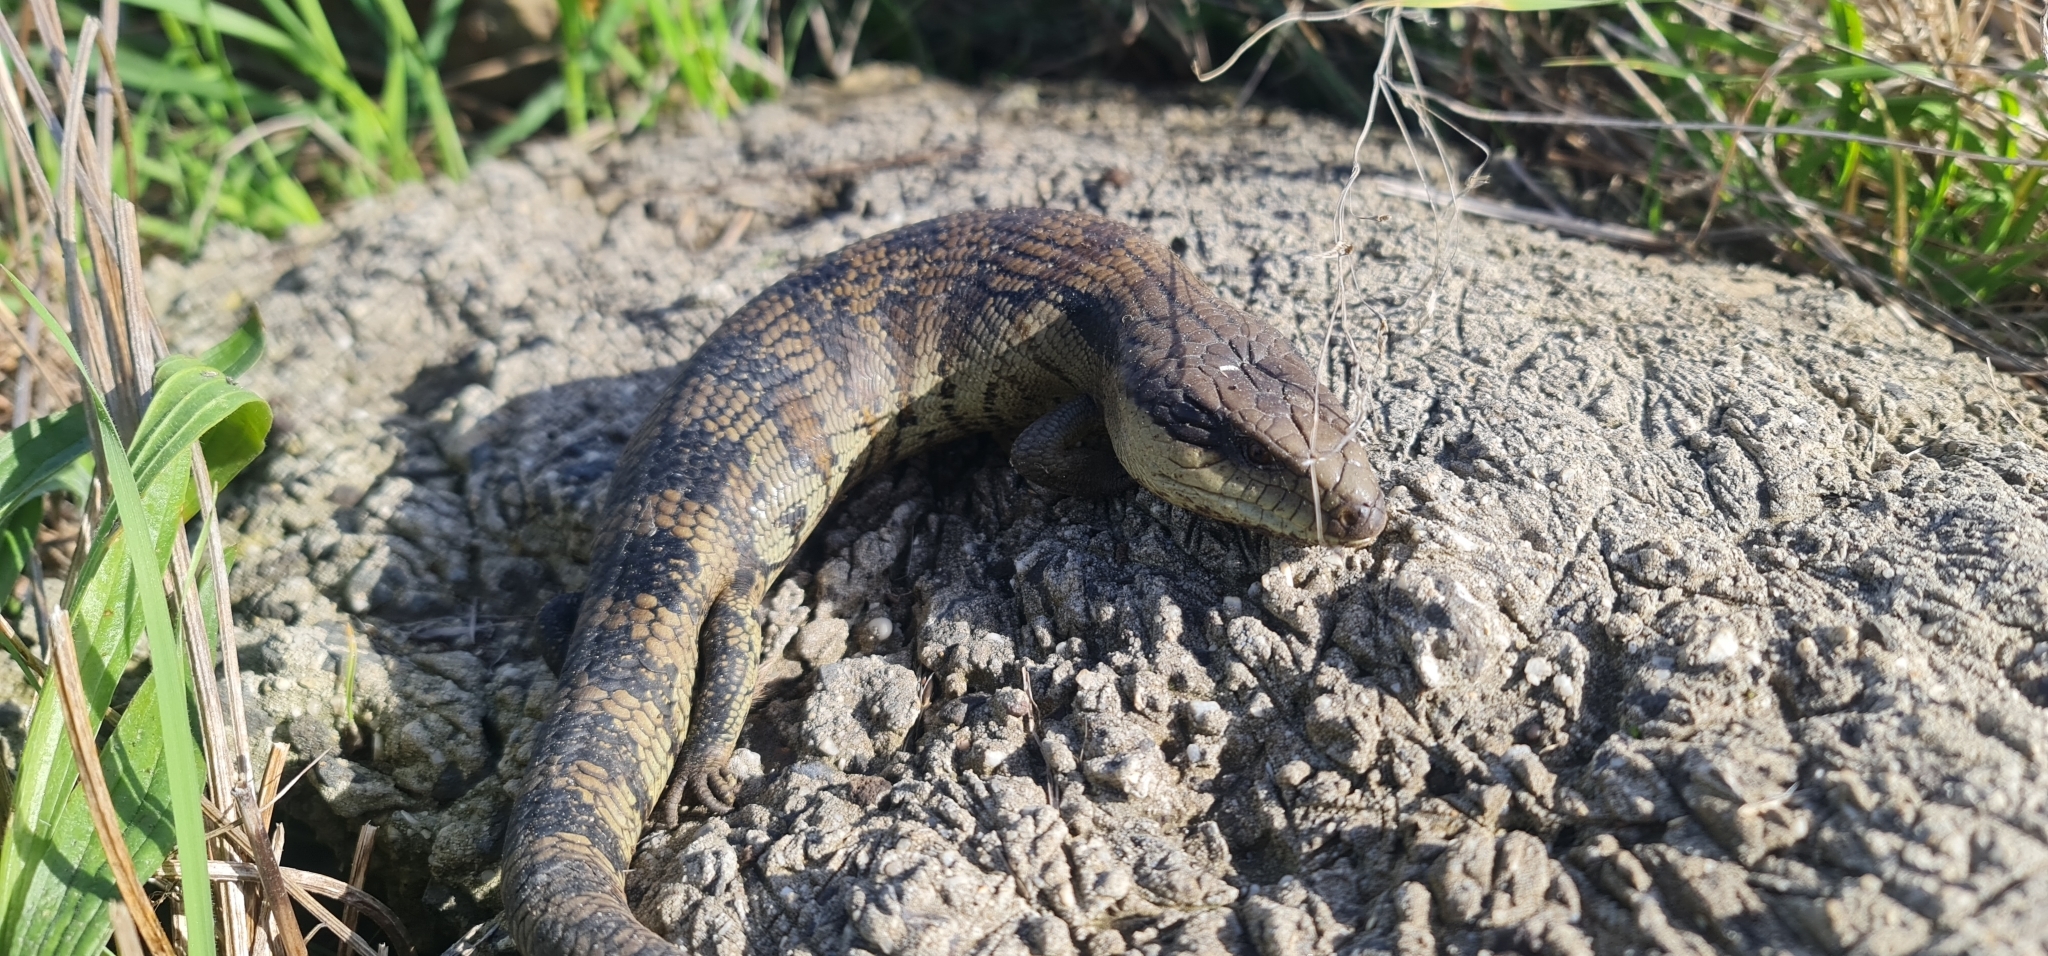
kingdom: Animalia
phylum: Chordata
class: Squamata
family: Scincidae
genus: Tiliqua
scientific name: Tiliqua scincoides
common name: Common bluetongue
